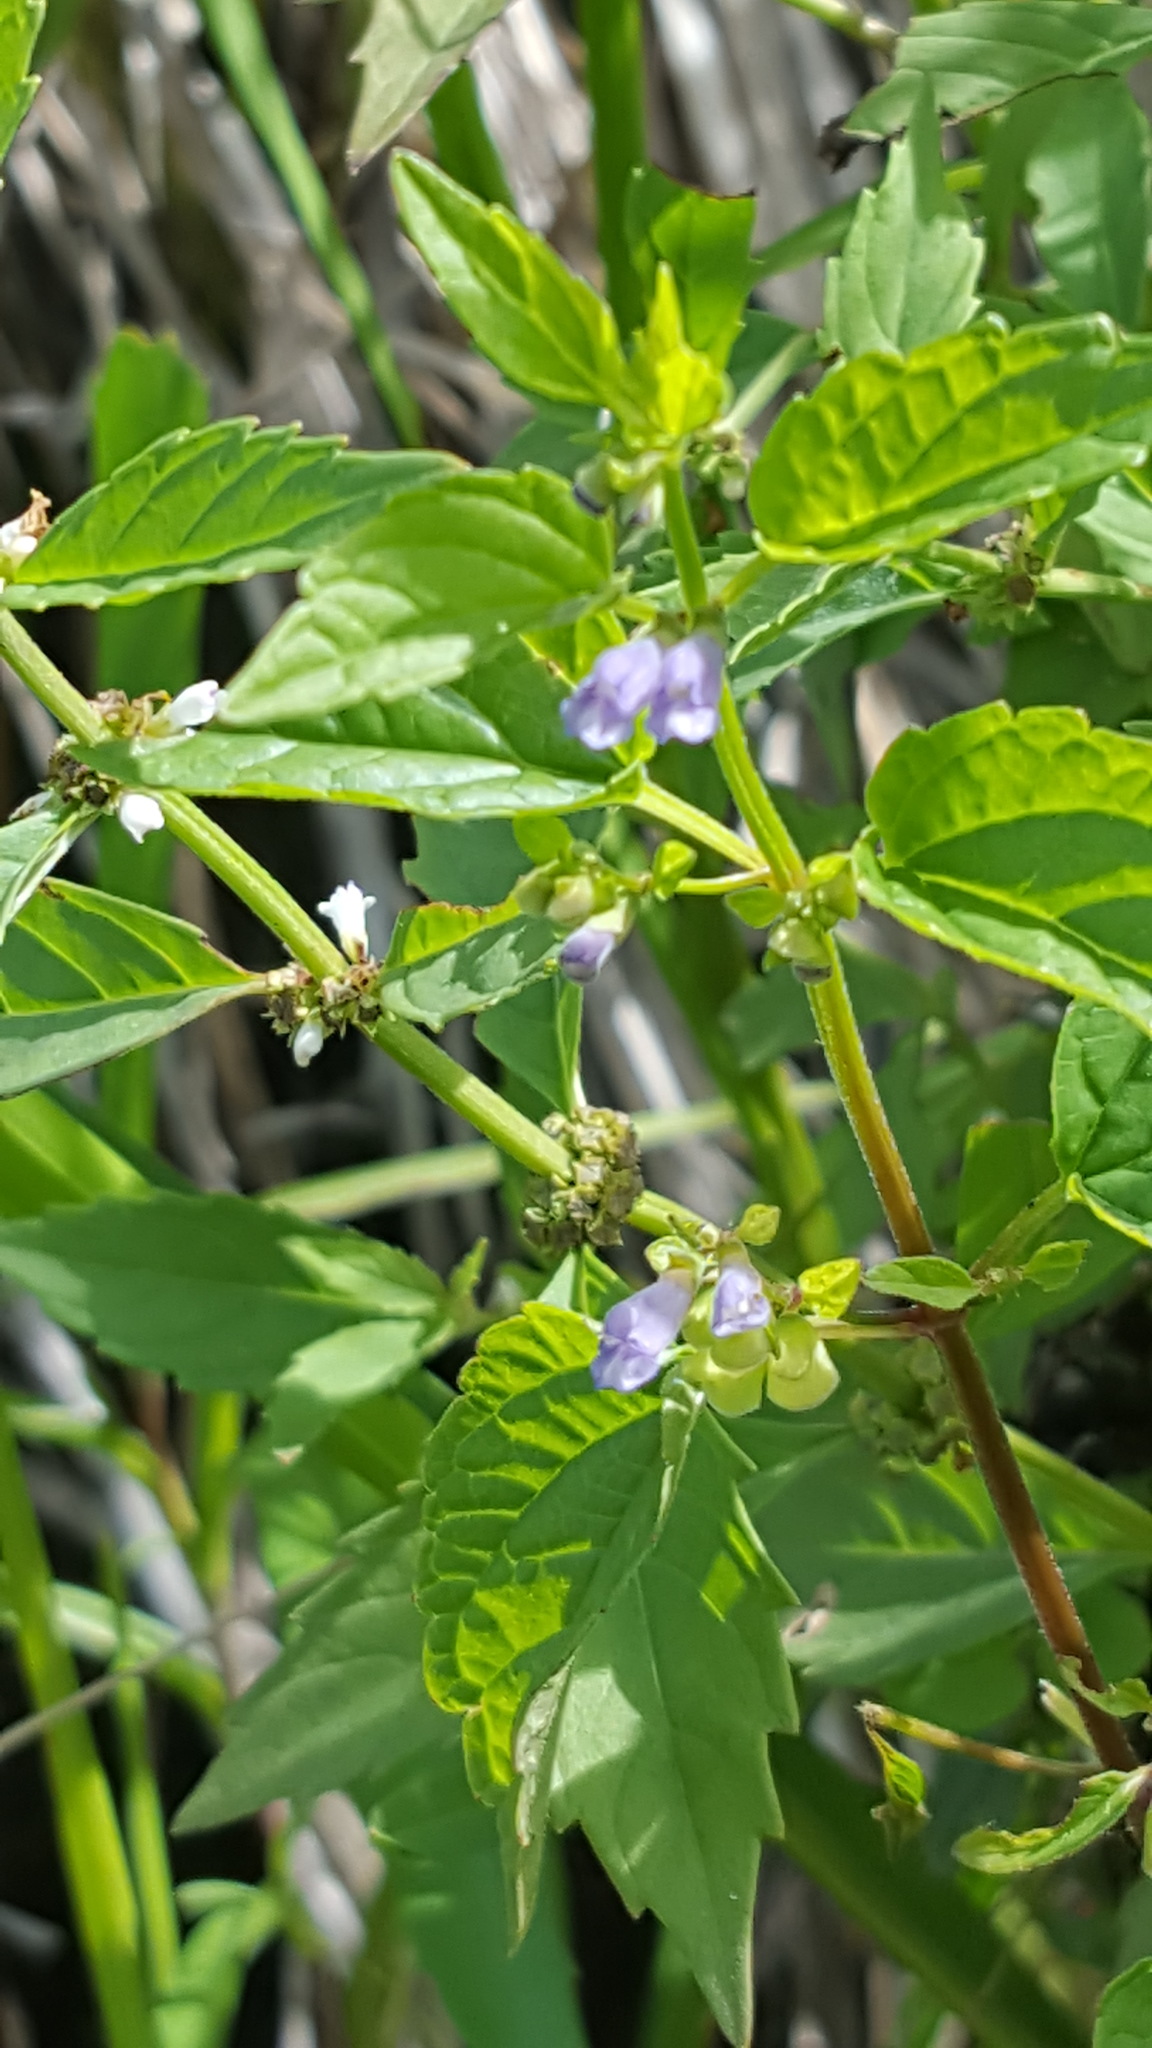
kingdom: Plantae
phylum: Tracheophyta
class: Magnoliopsida
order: Lamiales
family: Lamiaceae
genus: Scutellaria
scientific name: Scutellaria lateriflora
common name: Blue skullcap
